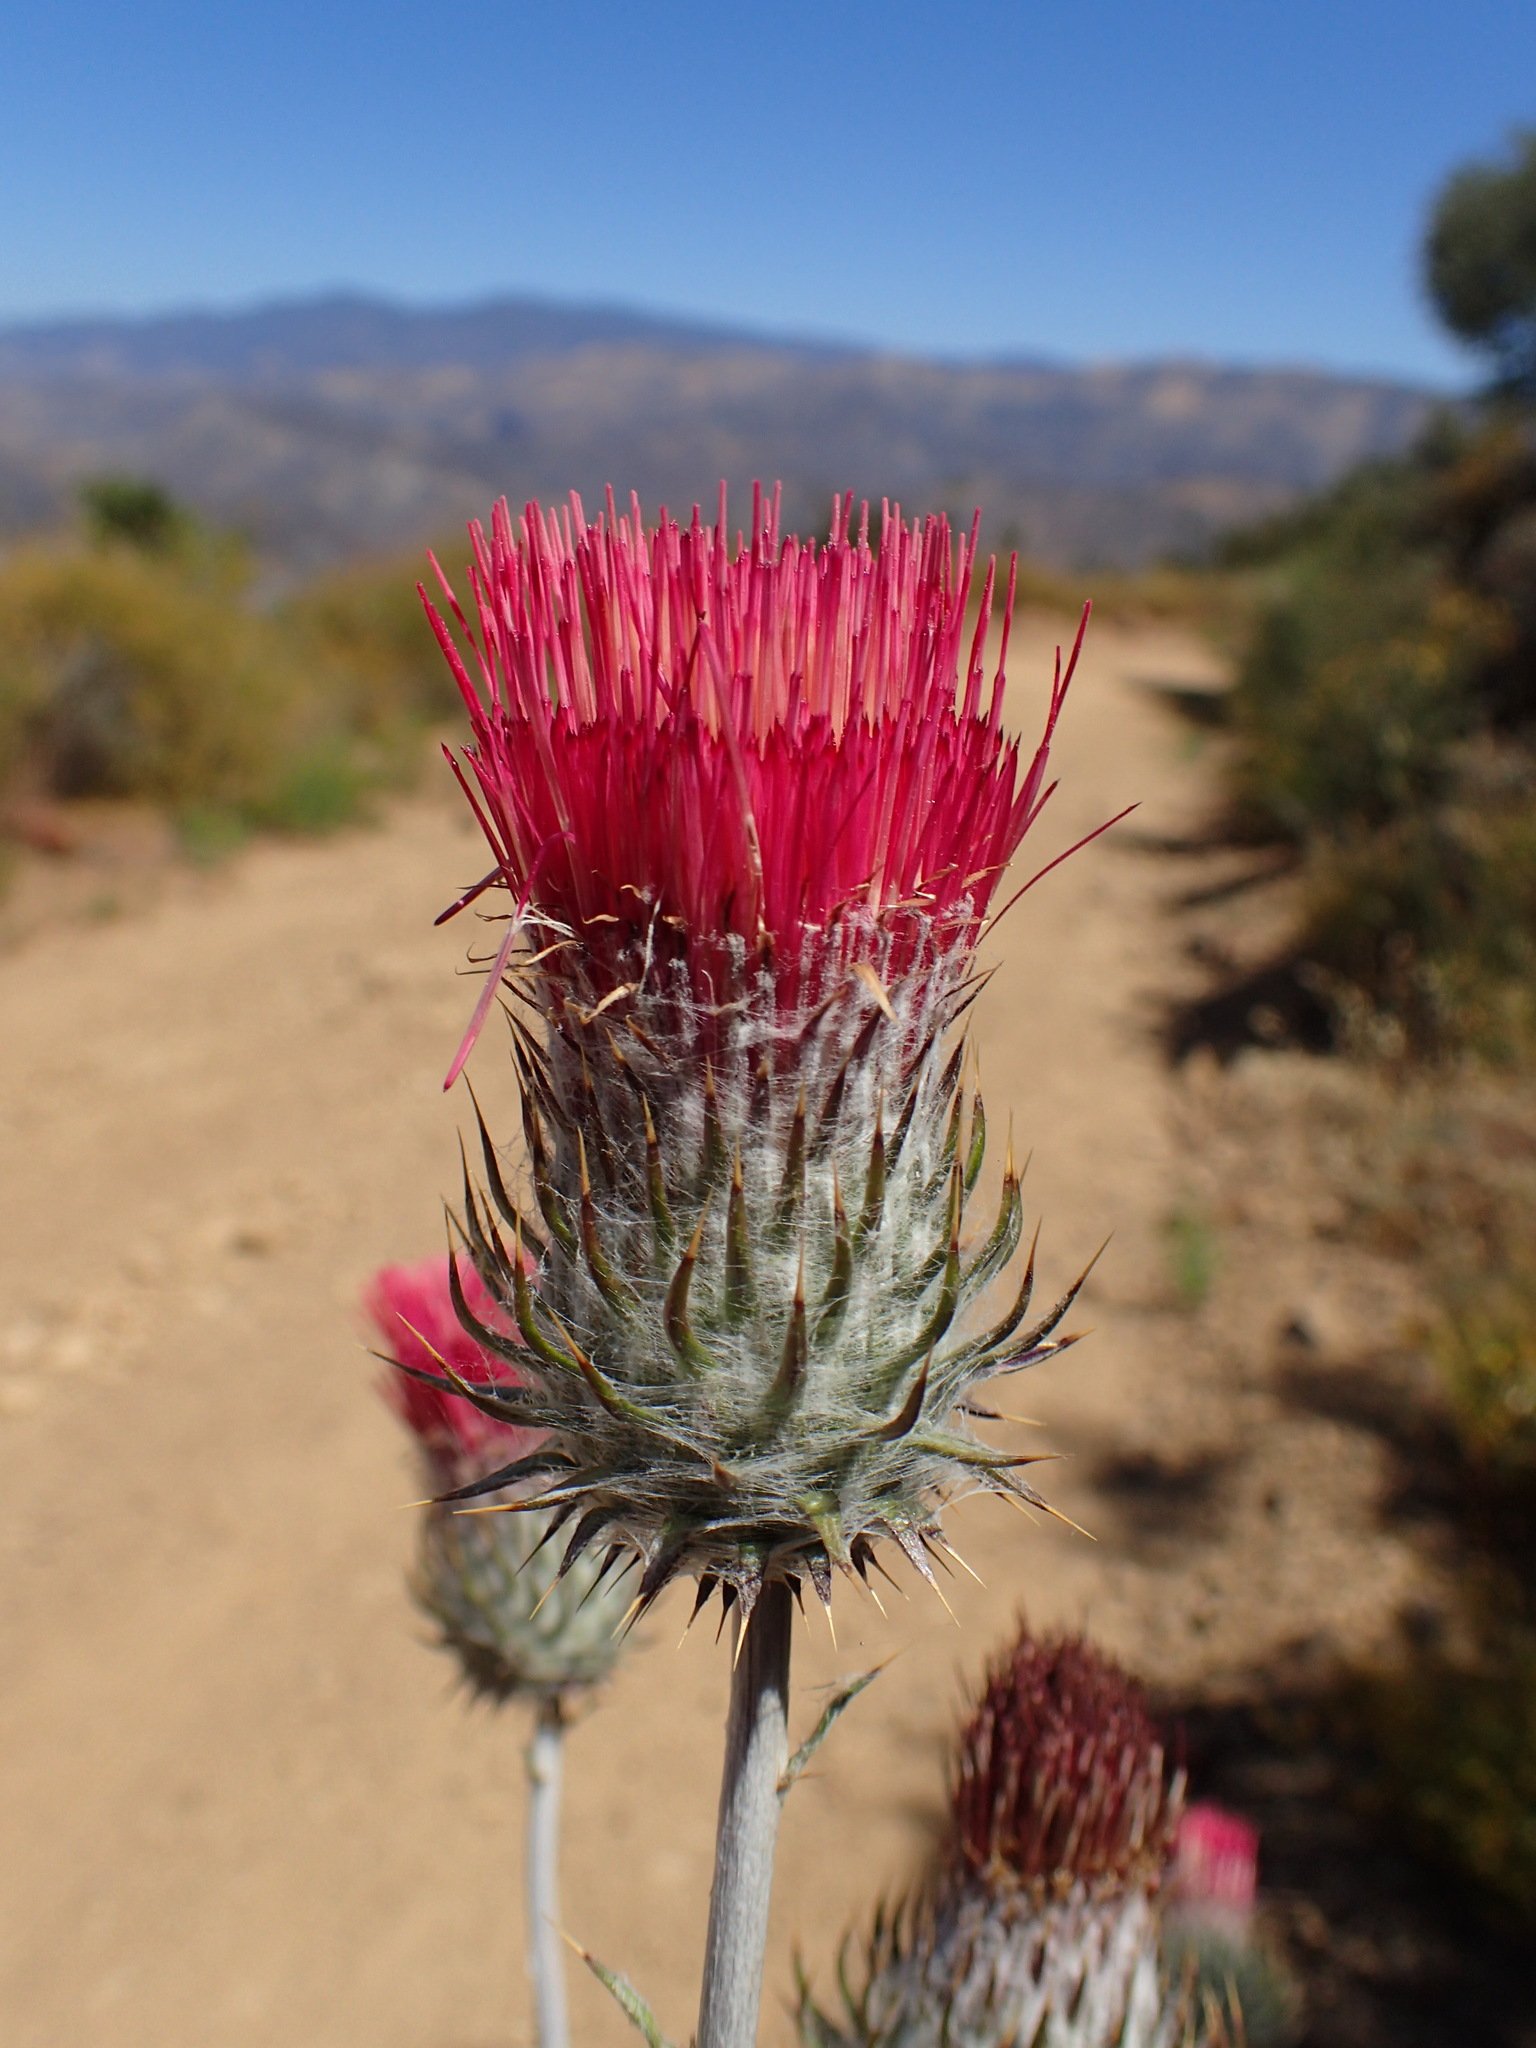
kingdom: Plantae
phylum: Tracheophyta
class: Magnoliopsida
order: Asterales
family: Asteraceae
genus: Cirsium
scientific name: Cirsium occidentale
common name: Western thistle
